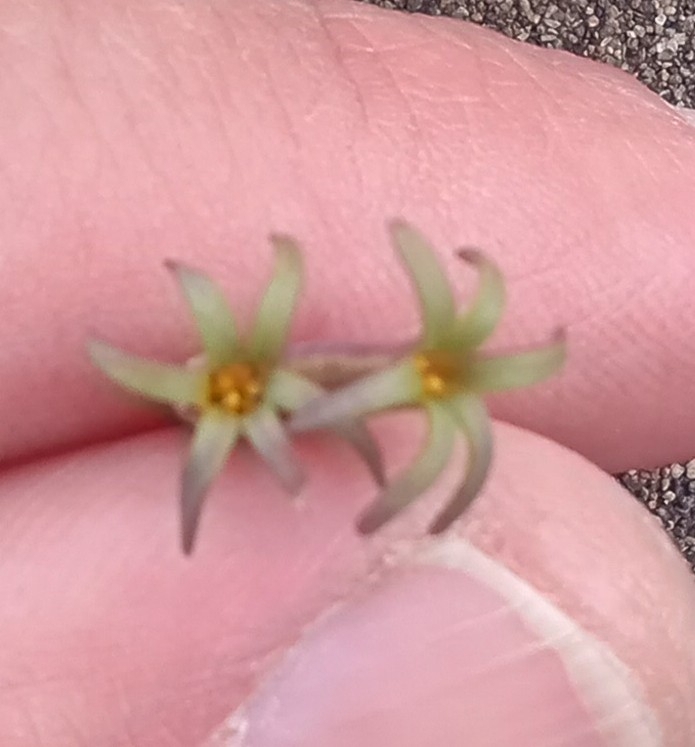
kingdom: Plantae
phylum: Tracheophyta
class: Liliopsida
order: Asparagales
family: Amaryllidaceae
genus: Tristagma
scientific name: Tristagma nivale
